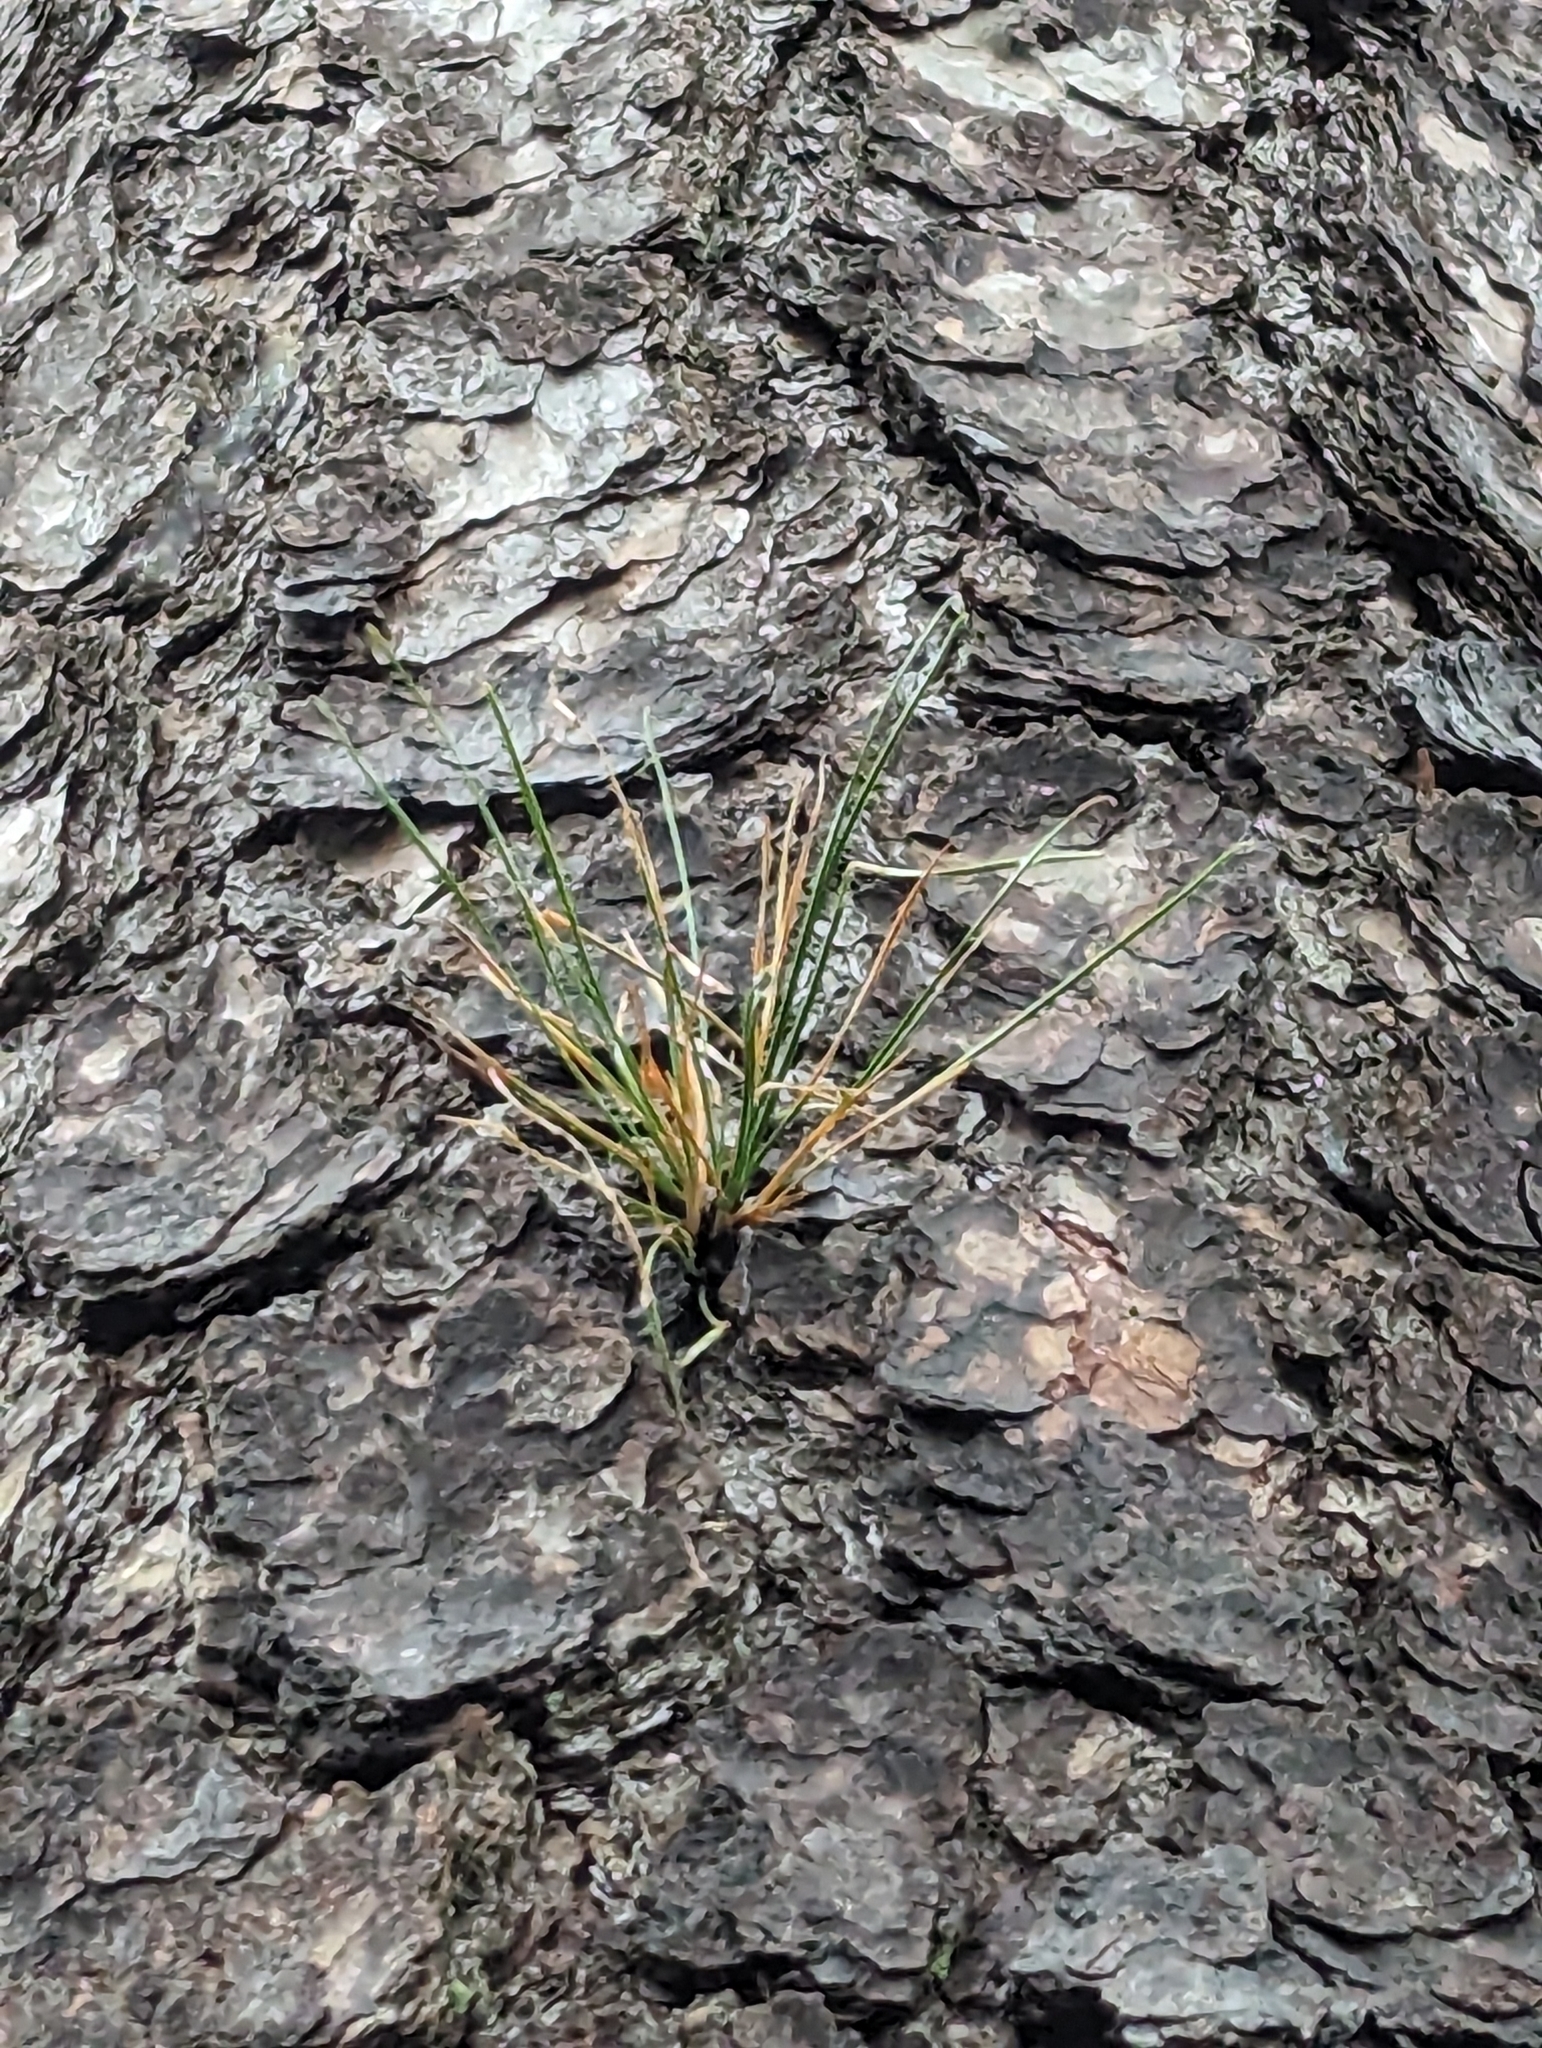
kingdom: Plantae
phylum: Tracheophyta
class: Pinopsida
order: Pinales
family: Pinaceae
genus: Pinus
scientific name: Pinus rigida
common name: Pitch pine
